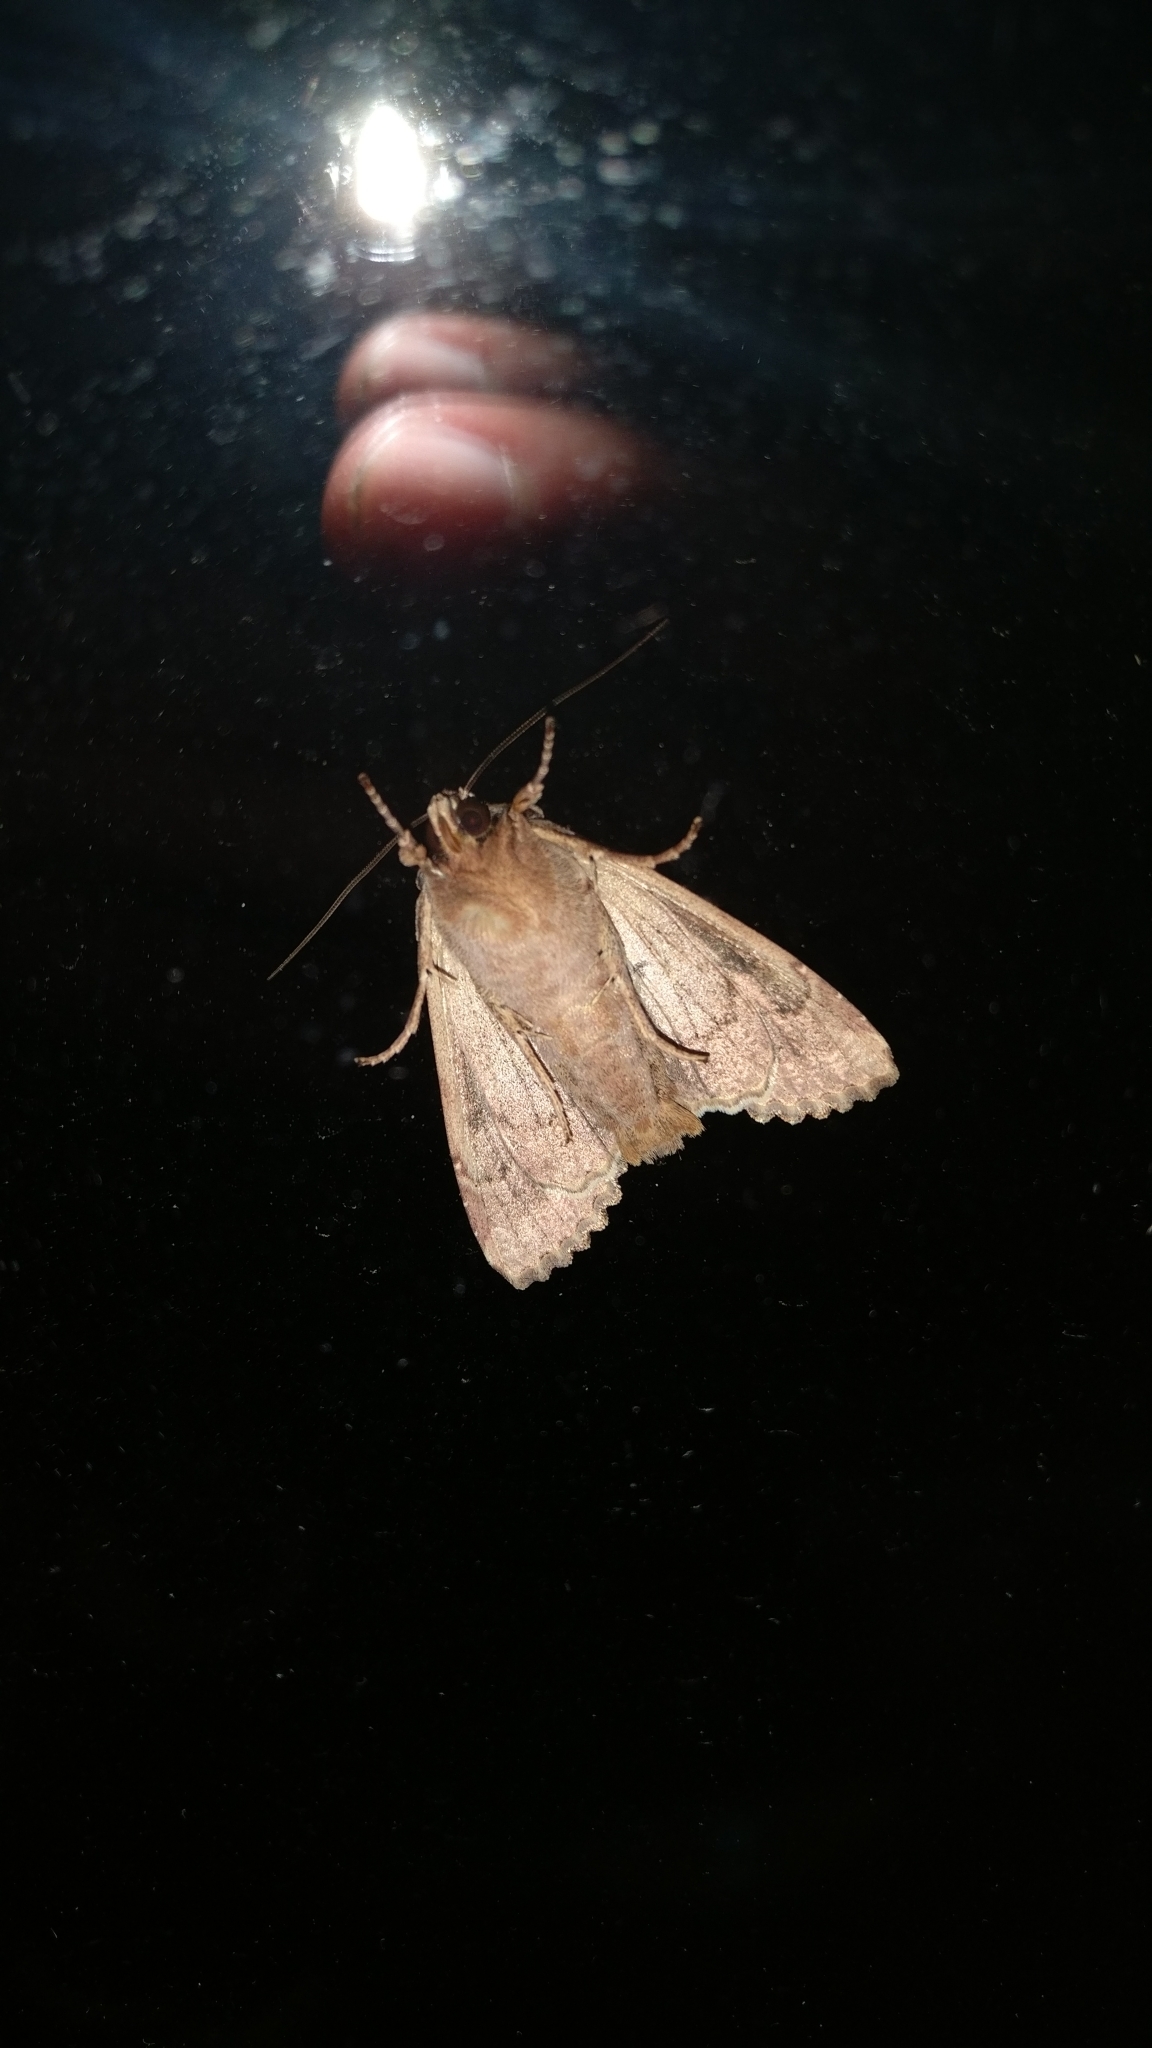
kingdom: Animalia
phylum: Arthropoda
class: Insecta
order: Lepidoptera
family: Noctuidae
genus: Apamea
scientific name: Apamea monoglypha
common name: Dark arches
